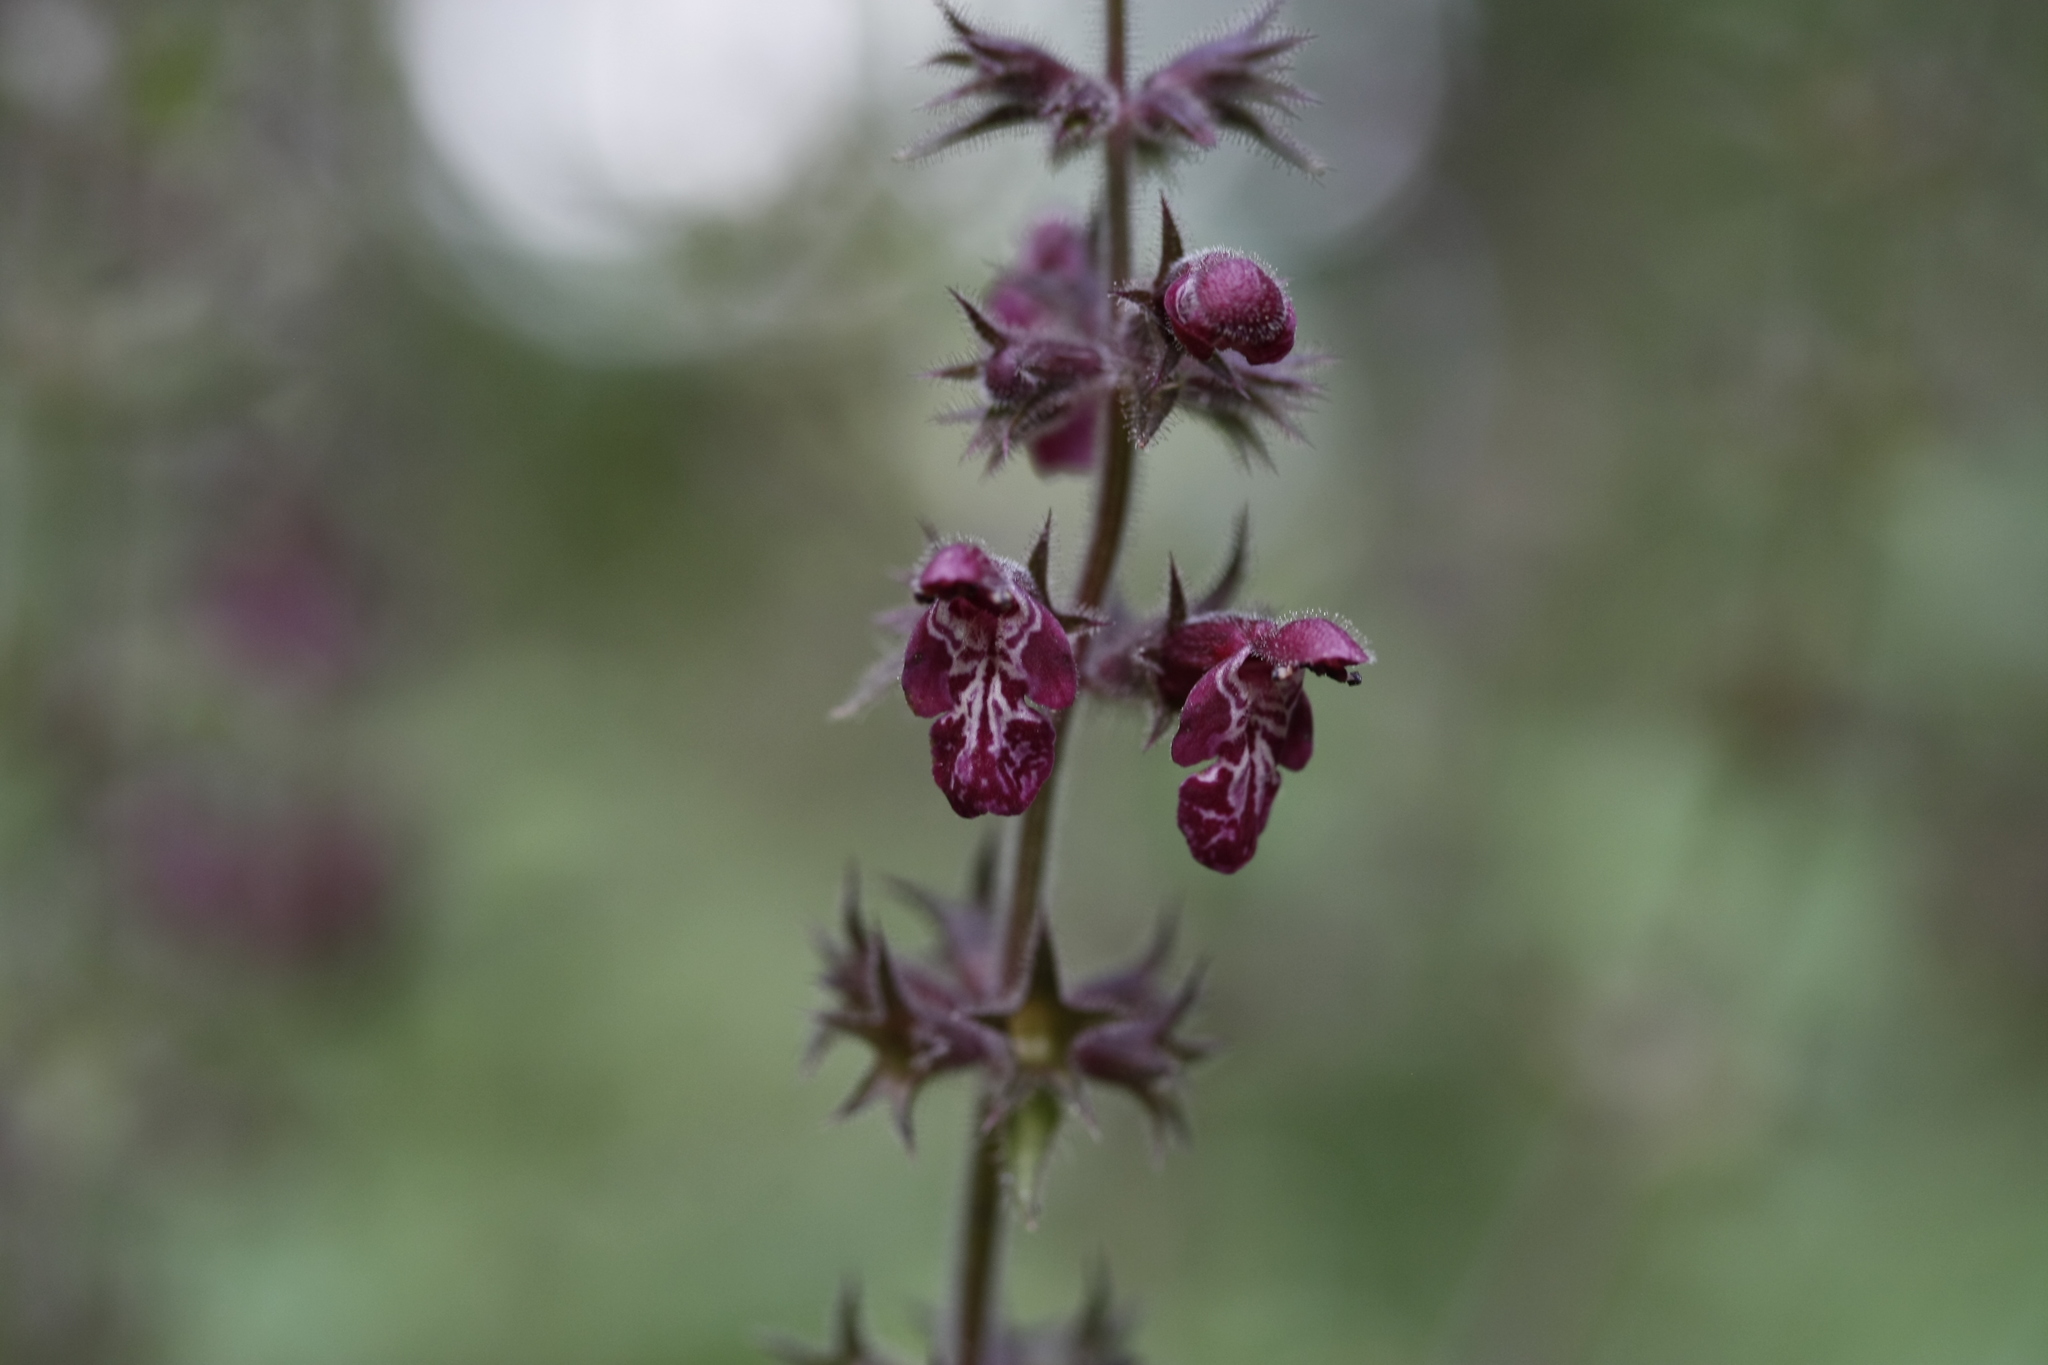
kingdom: Plantae
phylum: Tracheophyta
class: Magnoliopsida
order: Lamiales
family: Lamiaceae
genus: Stachys
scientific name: Stachys sylvatica
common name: Hedge woundwort
